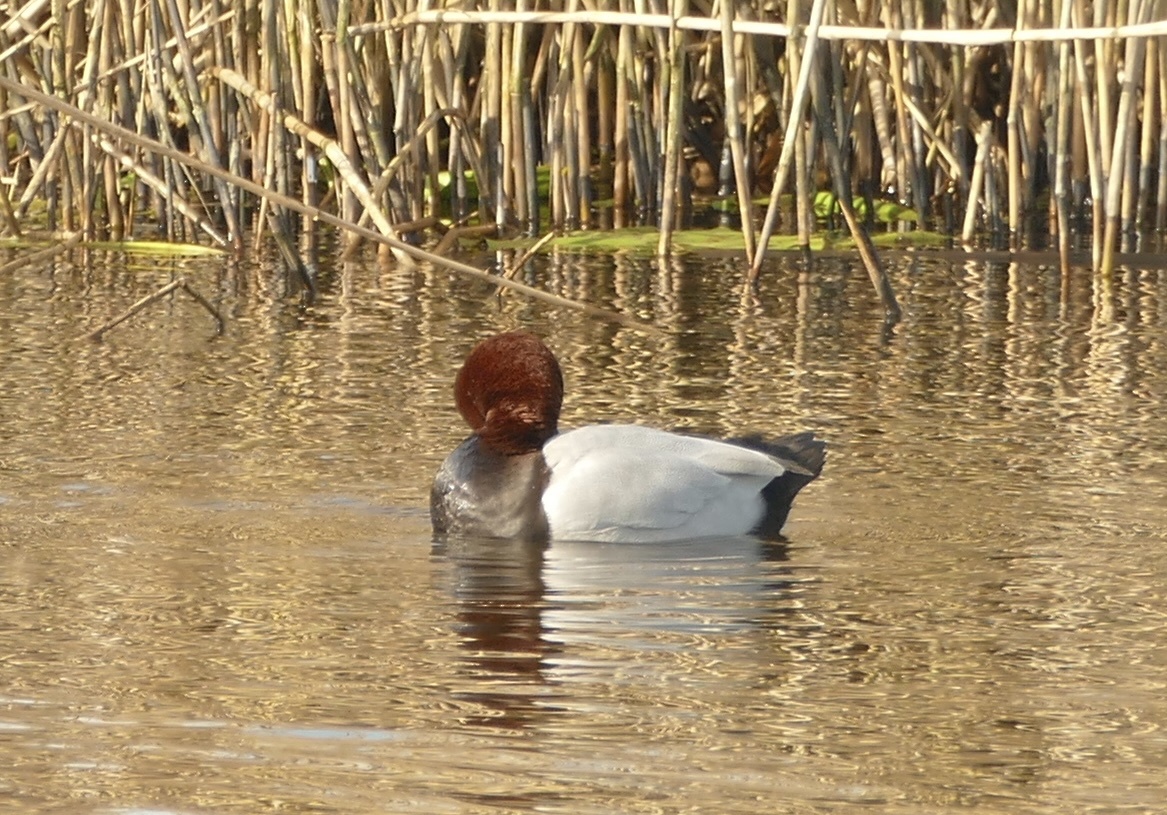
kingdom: Animalia
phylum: Chordata
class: Aves
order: Anseriformes
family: Anatidae
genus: Aythya
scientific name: Aythya ferina
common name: Common pochard
